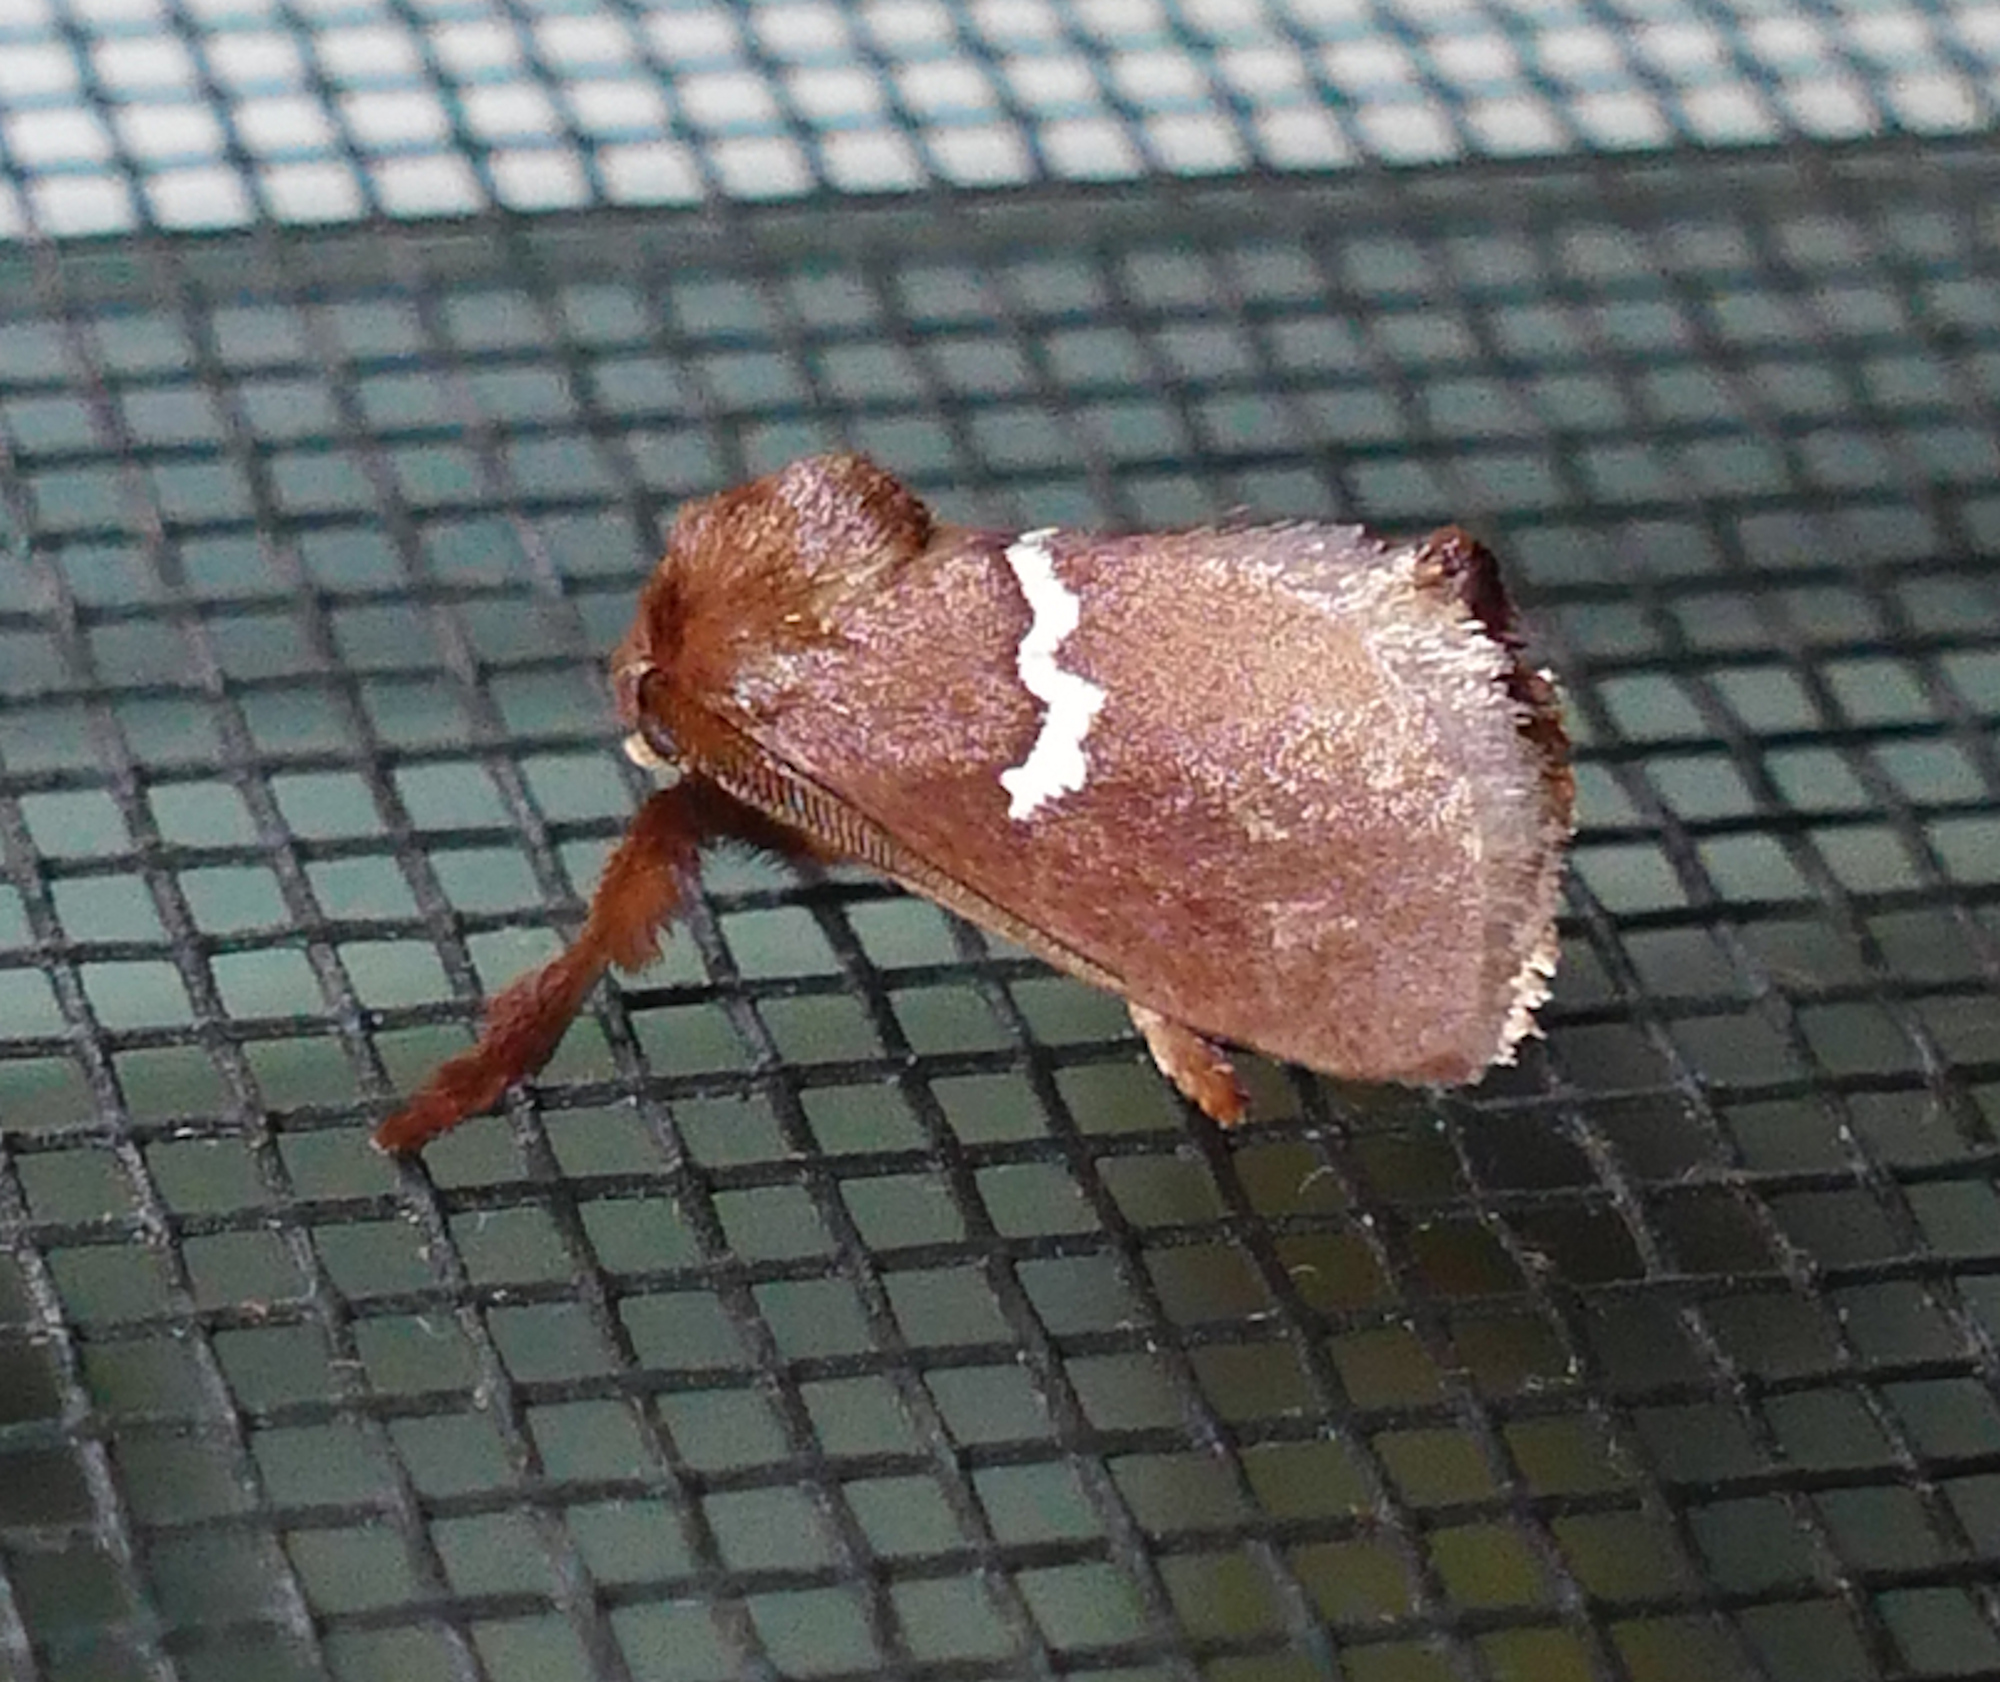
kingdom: Animalia
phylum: Arthropoda
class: Insecta
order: Lepidoptera
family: Limacodidae
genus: Monoleuca
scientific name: Monoleuca semifascia
